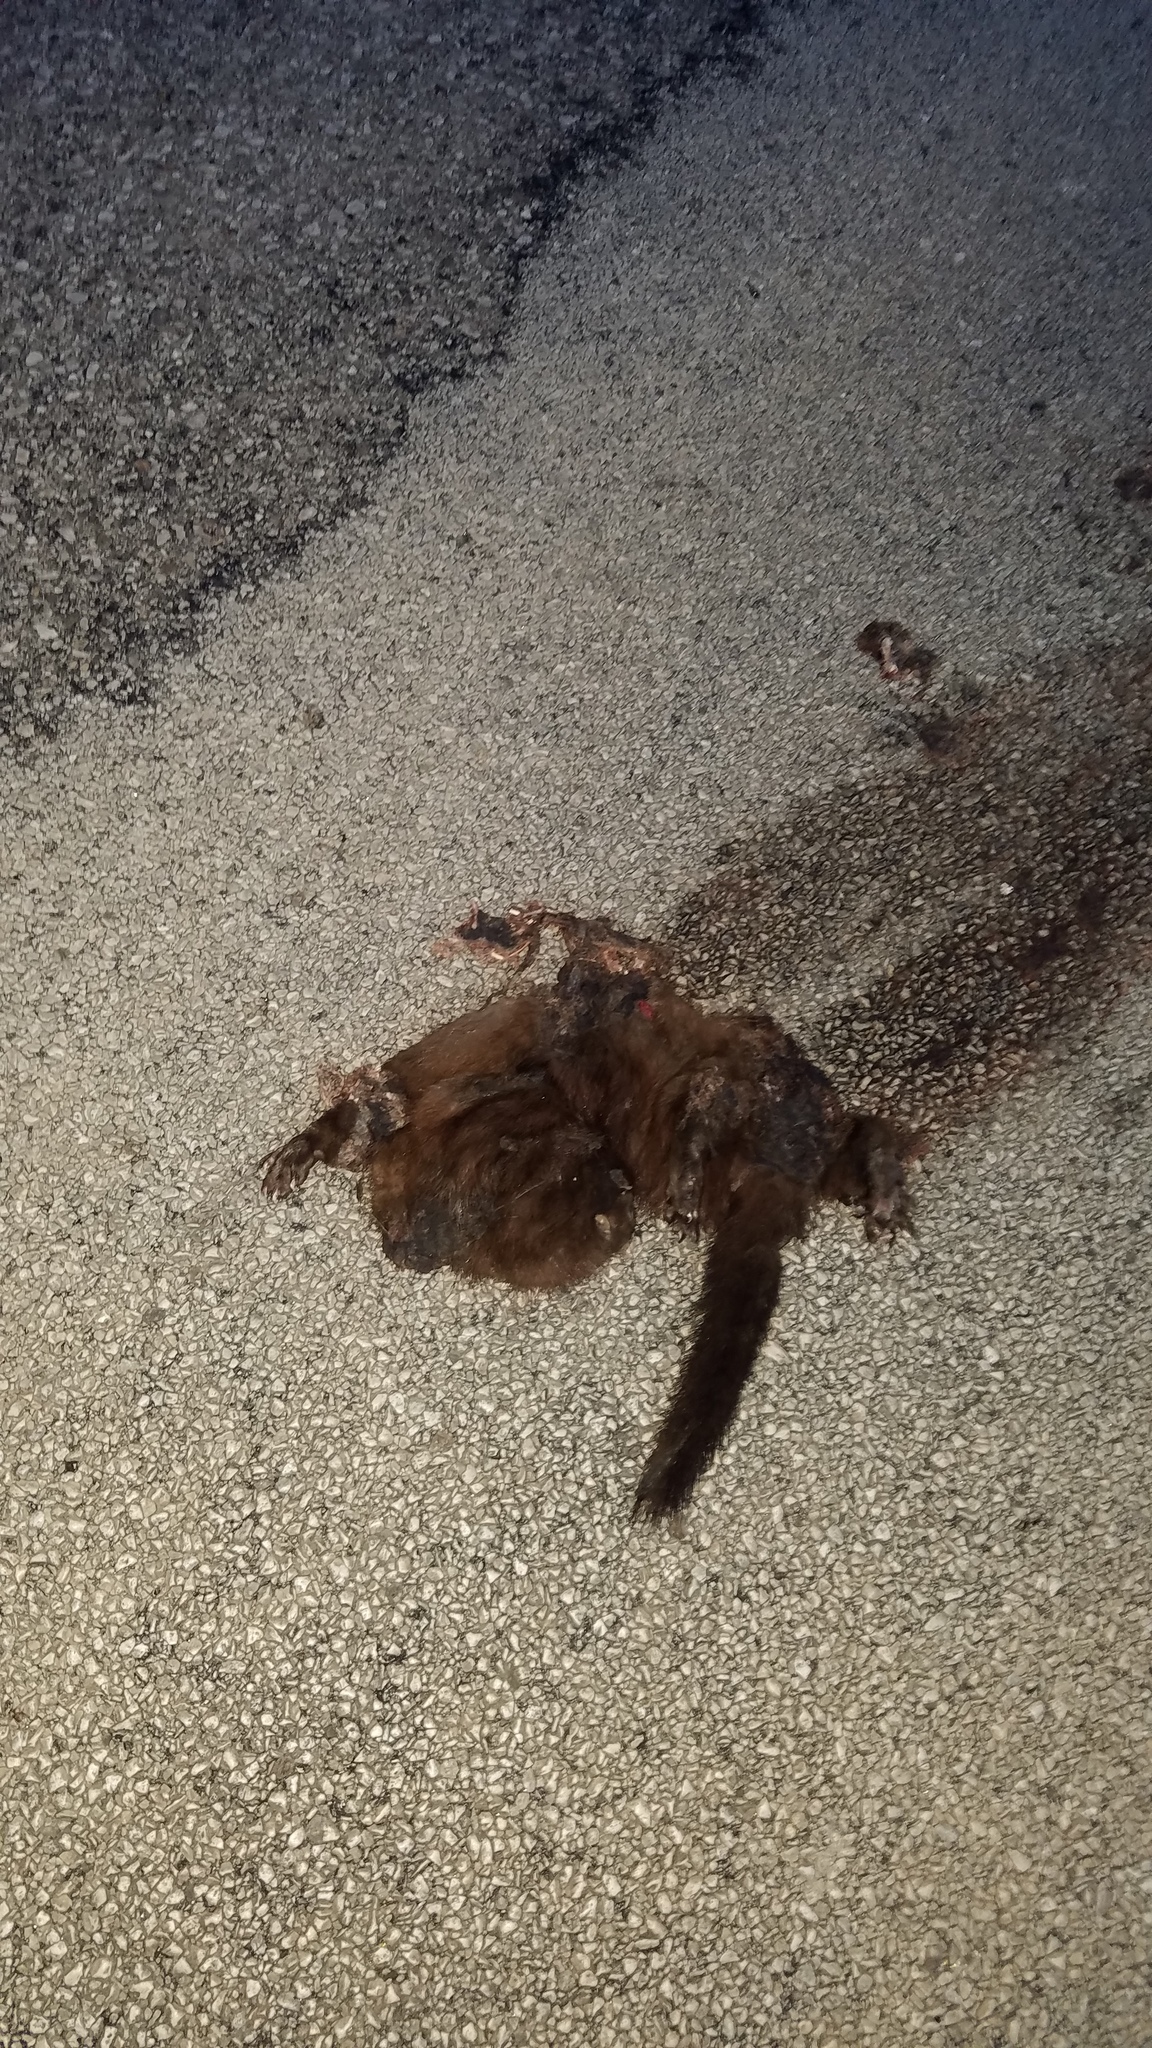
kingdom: Animalia
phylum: Chordata
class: Mammalia
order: Carnivora
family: Mustelidae
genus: Mustela
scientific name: Mustela
